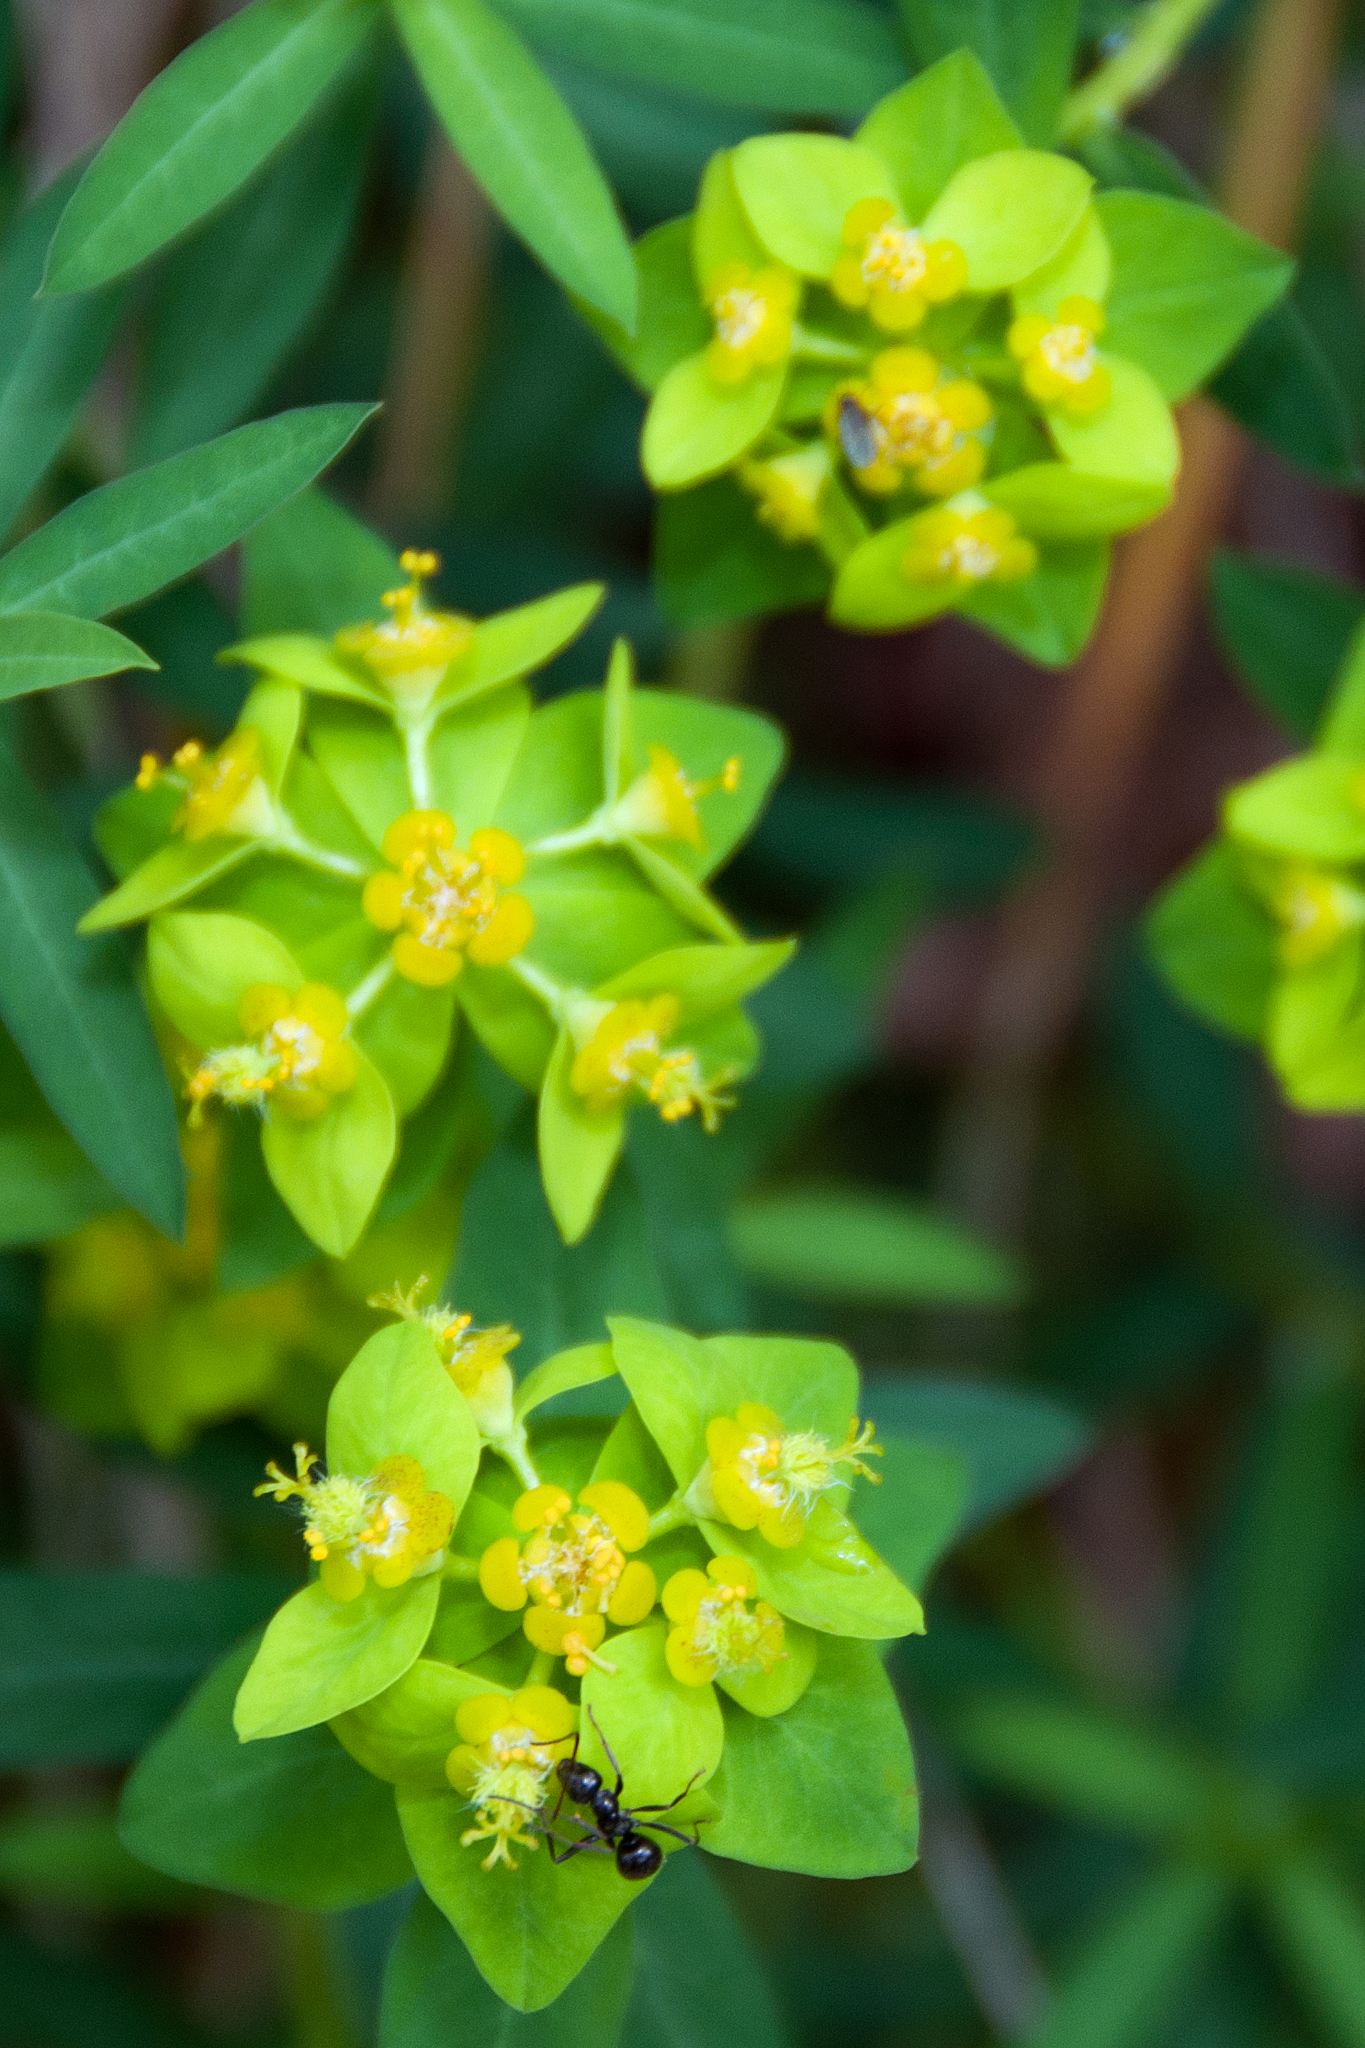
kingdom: Plantae
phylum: Tracheophyta
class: Magnoliopsida
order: Malpighiales
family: Euphorbiaceae
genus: Euphorbia
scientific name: Euphorbia verrucosa
